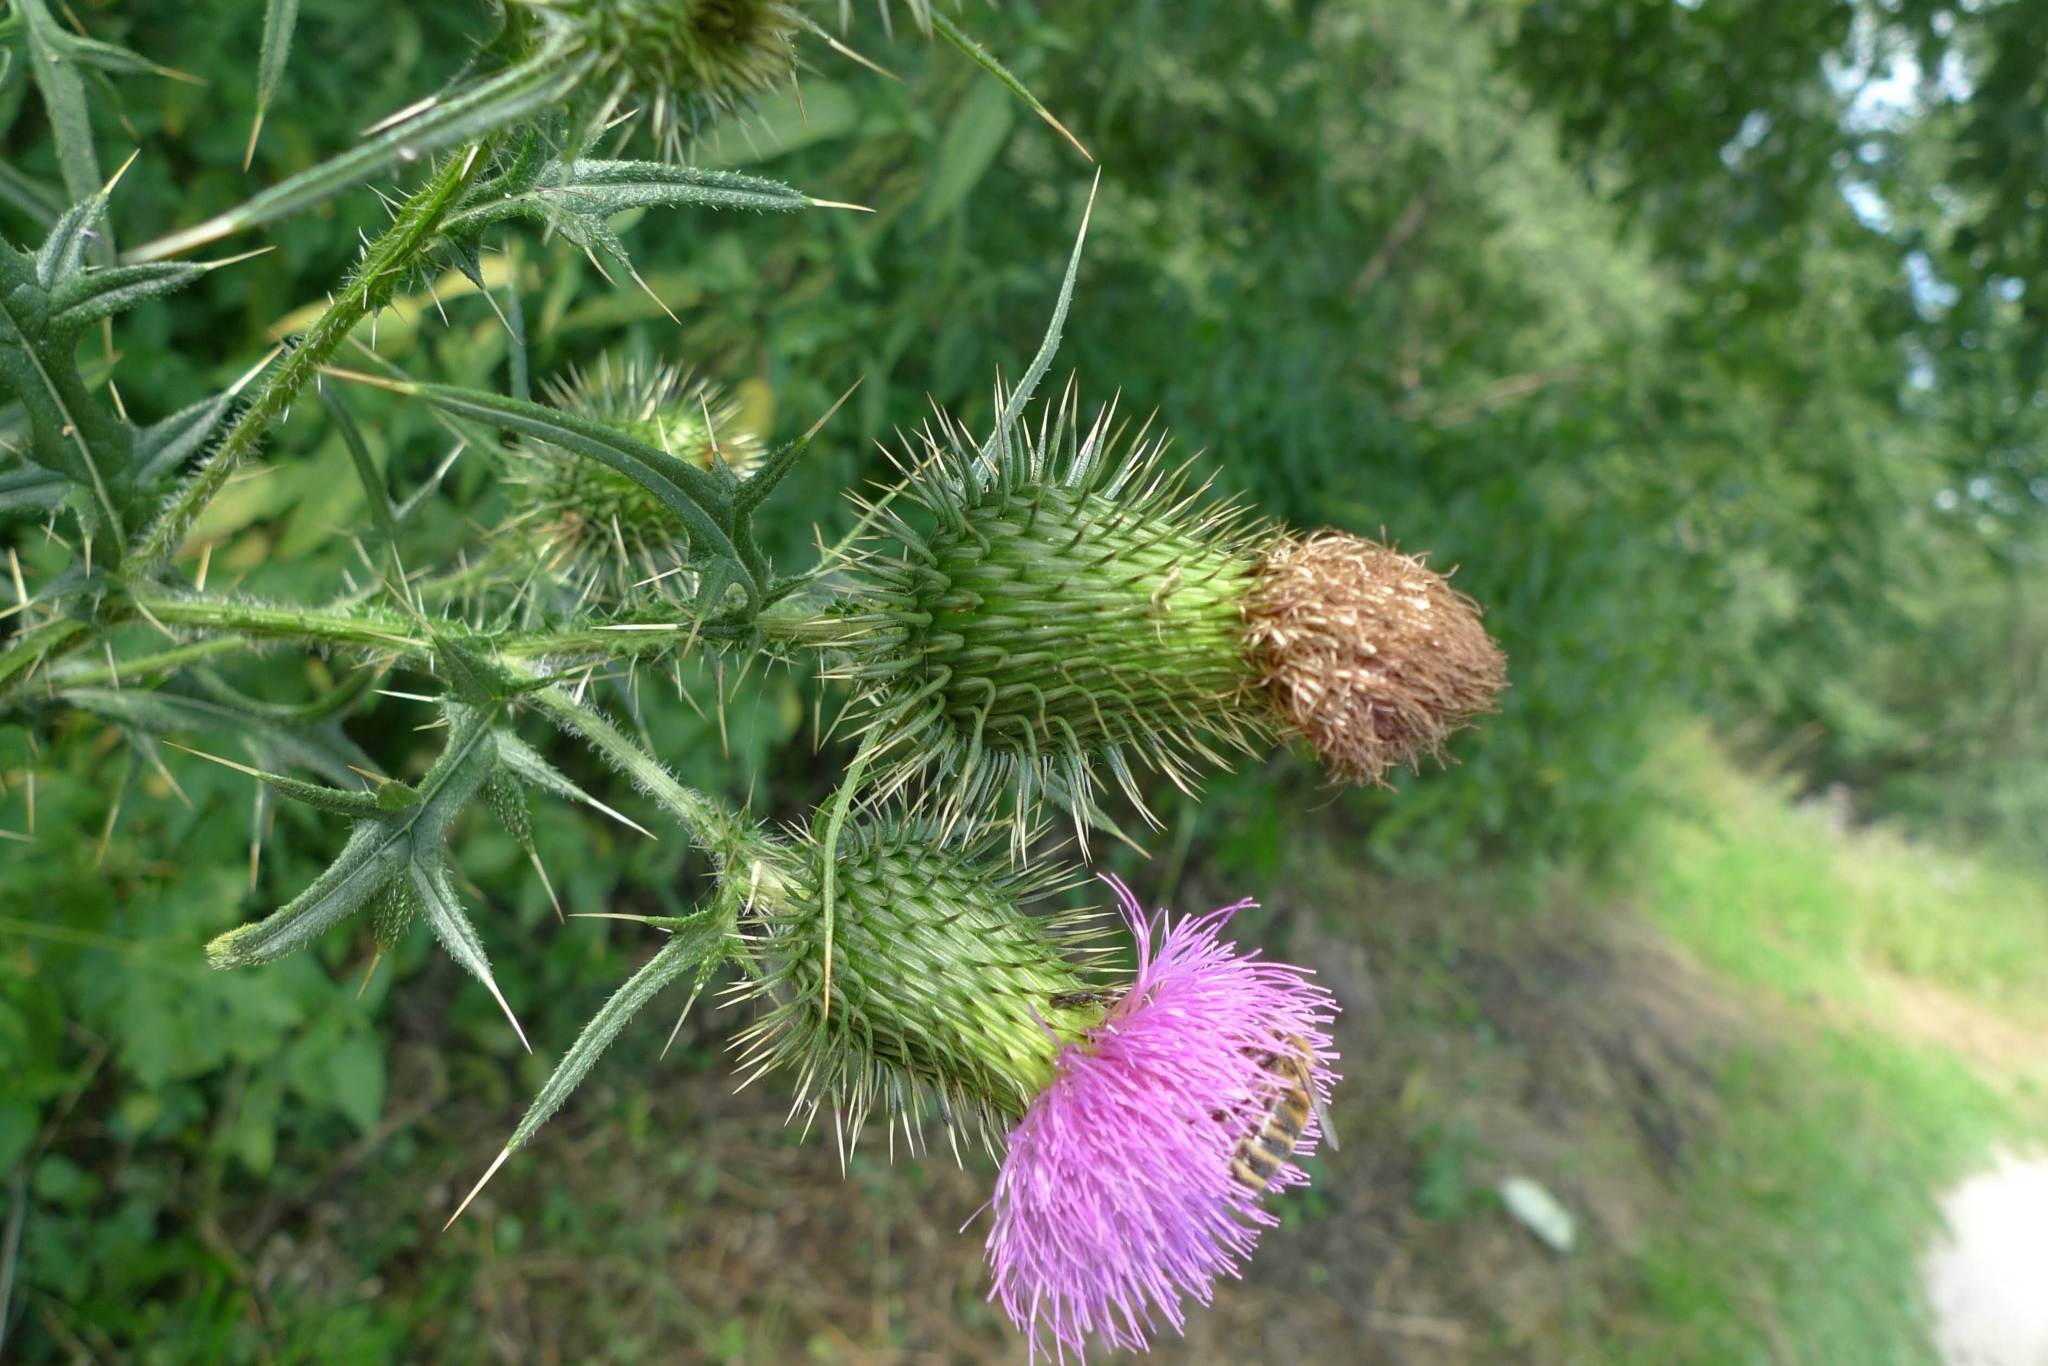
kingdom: Plantae
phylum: Tracheophyta
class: Magnoliopsida
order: Asterales
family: Asteraceae
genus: Cirsium
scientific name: Cirsium vulgare
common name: Bull thistle
